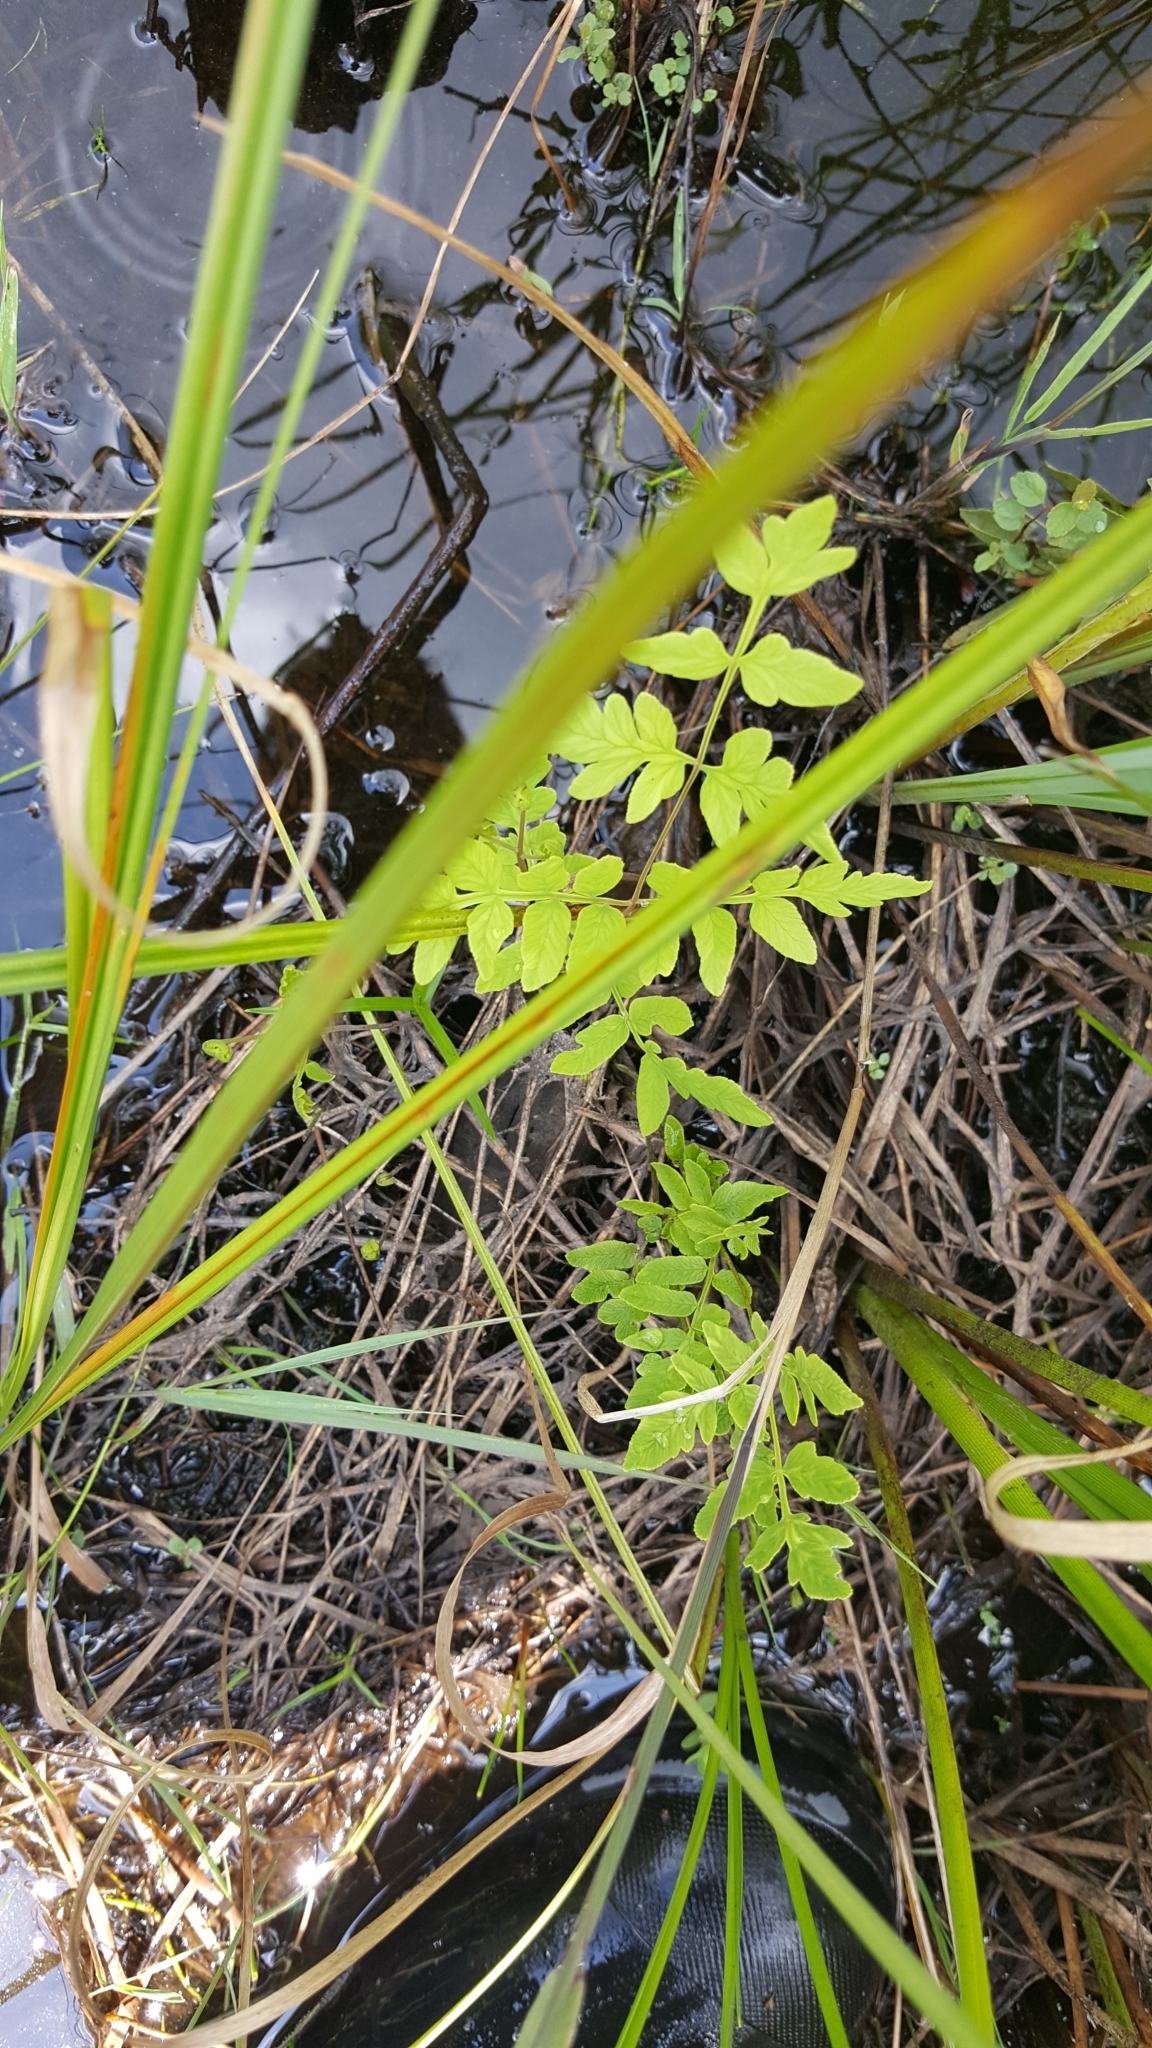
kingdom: Plantae
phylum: Tracheophyta
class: Polypodiopsida
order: Osmundales
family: Osmundaceae
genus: Osmunda
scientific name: Osmunda spectabilis
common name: American royal fern
